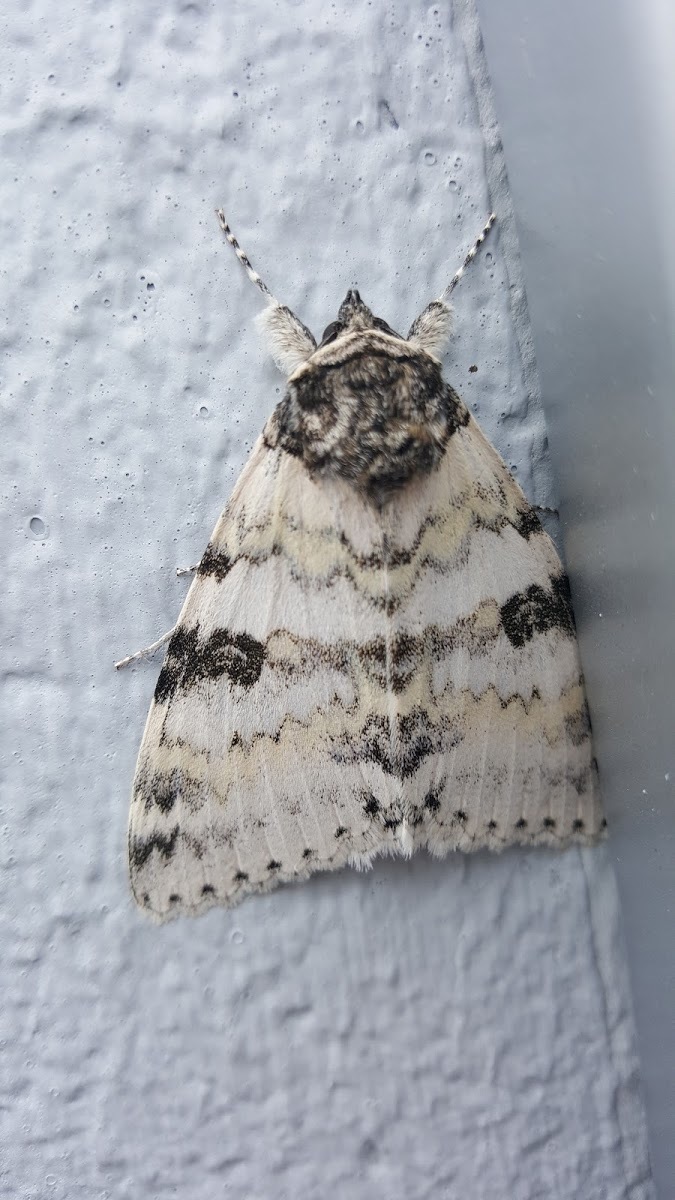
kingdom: Animalia
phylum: Arthropoda
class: Insecta
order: Lepidoptera
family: Erebidae
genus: Catocala
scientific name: Catocala relicta
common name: White underwing
